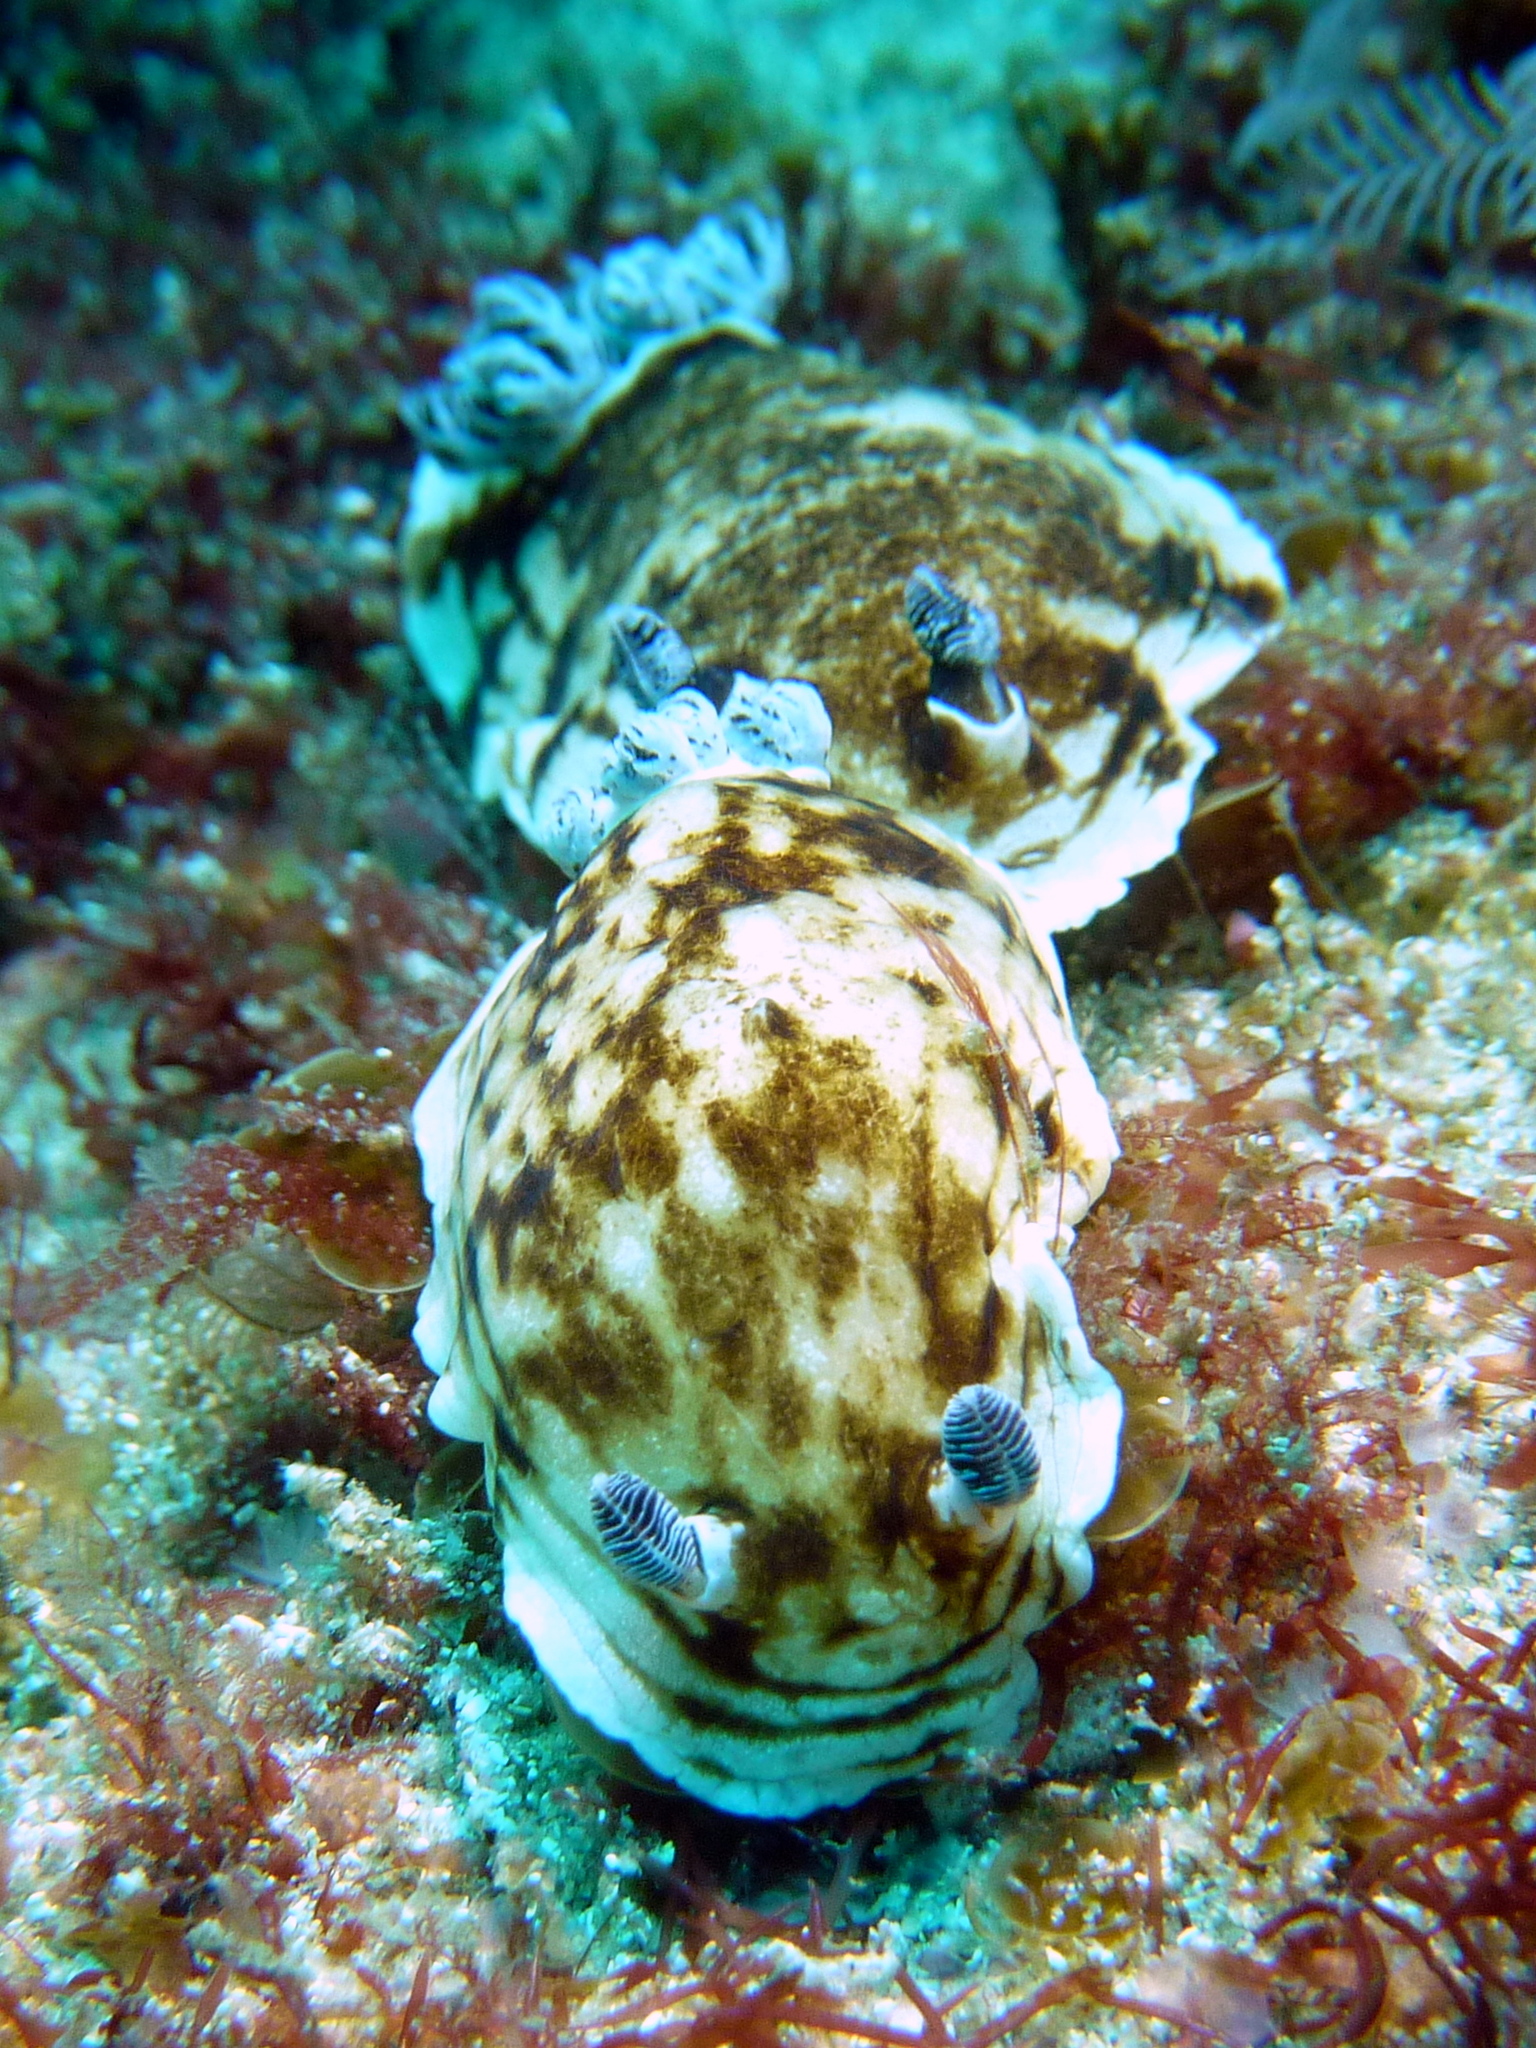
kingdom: Animalia
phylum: Mollusca
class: Gastropoda
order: Nudibranchia
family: Dorididae
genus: Aphelodoris
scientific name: Aphelodoris varia
